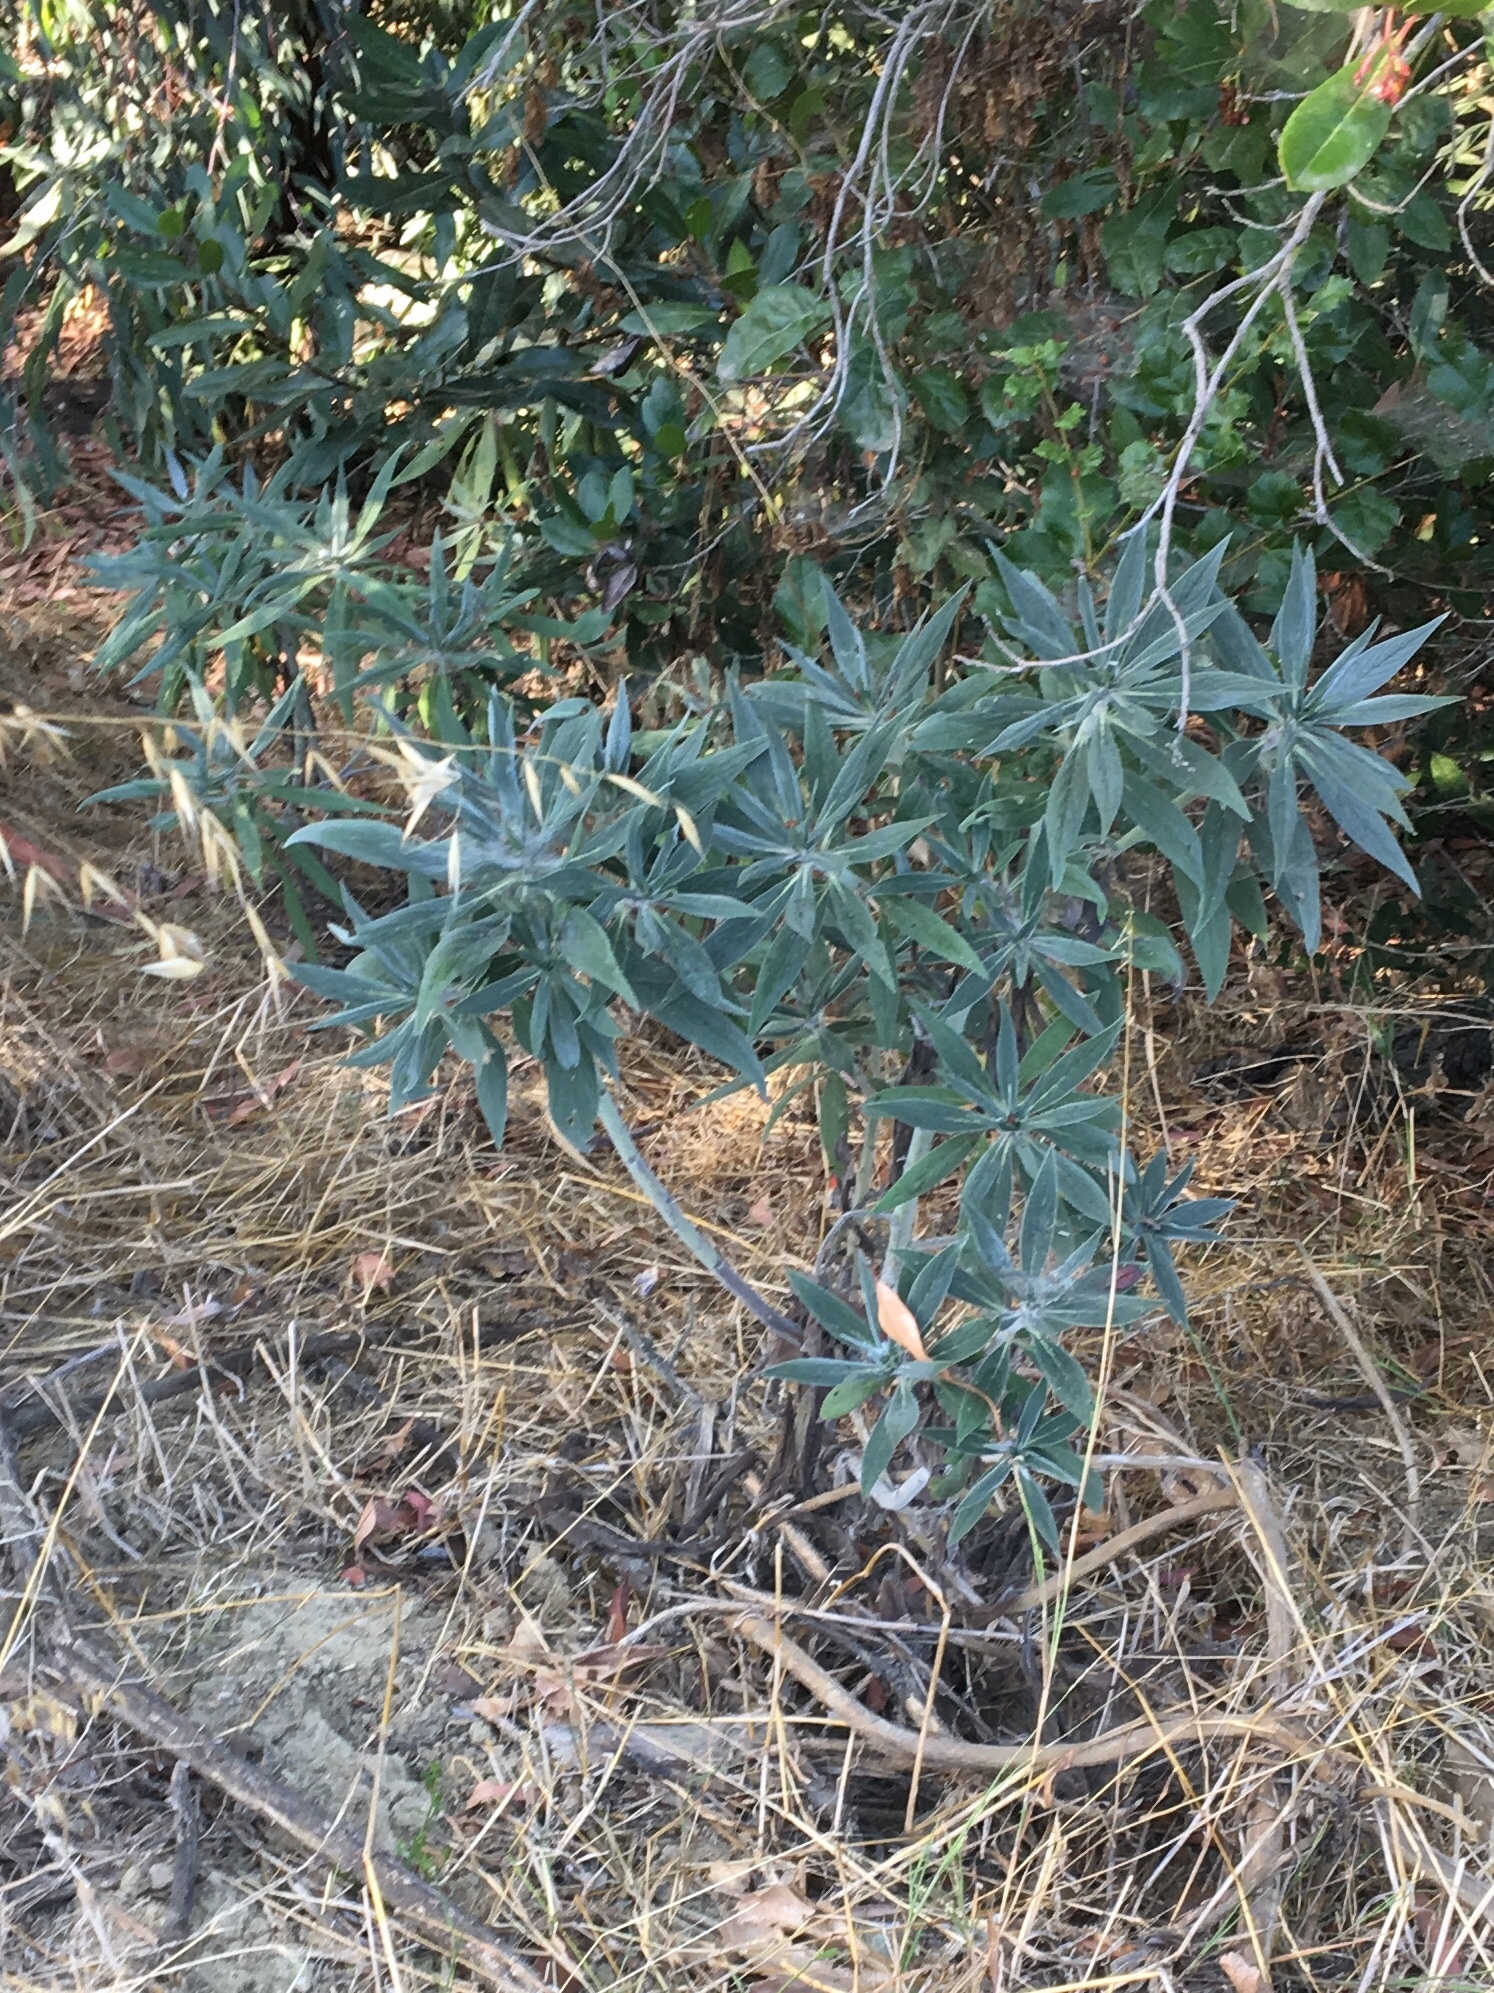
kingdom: Plantae
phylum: Tracheophyta
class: Magnoliopsida
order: Boraginales
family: Boraginaceae
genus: Echium
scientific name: Echium candicans
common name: Pride of madeira
